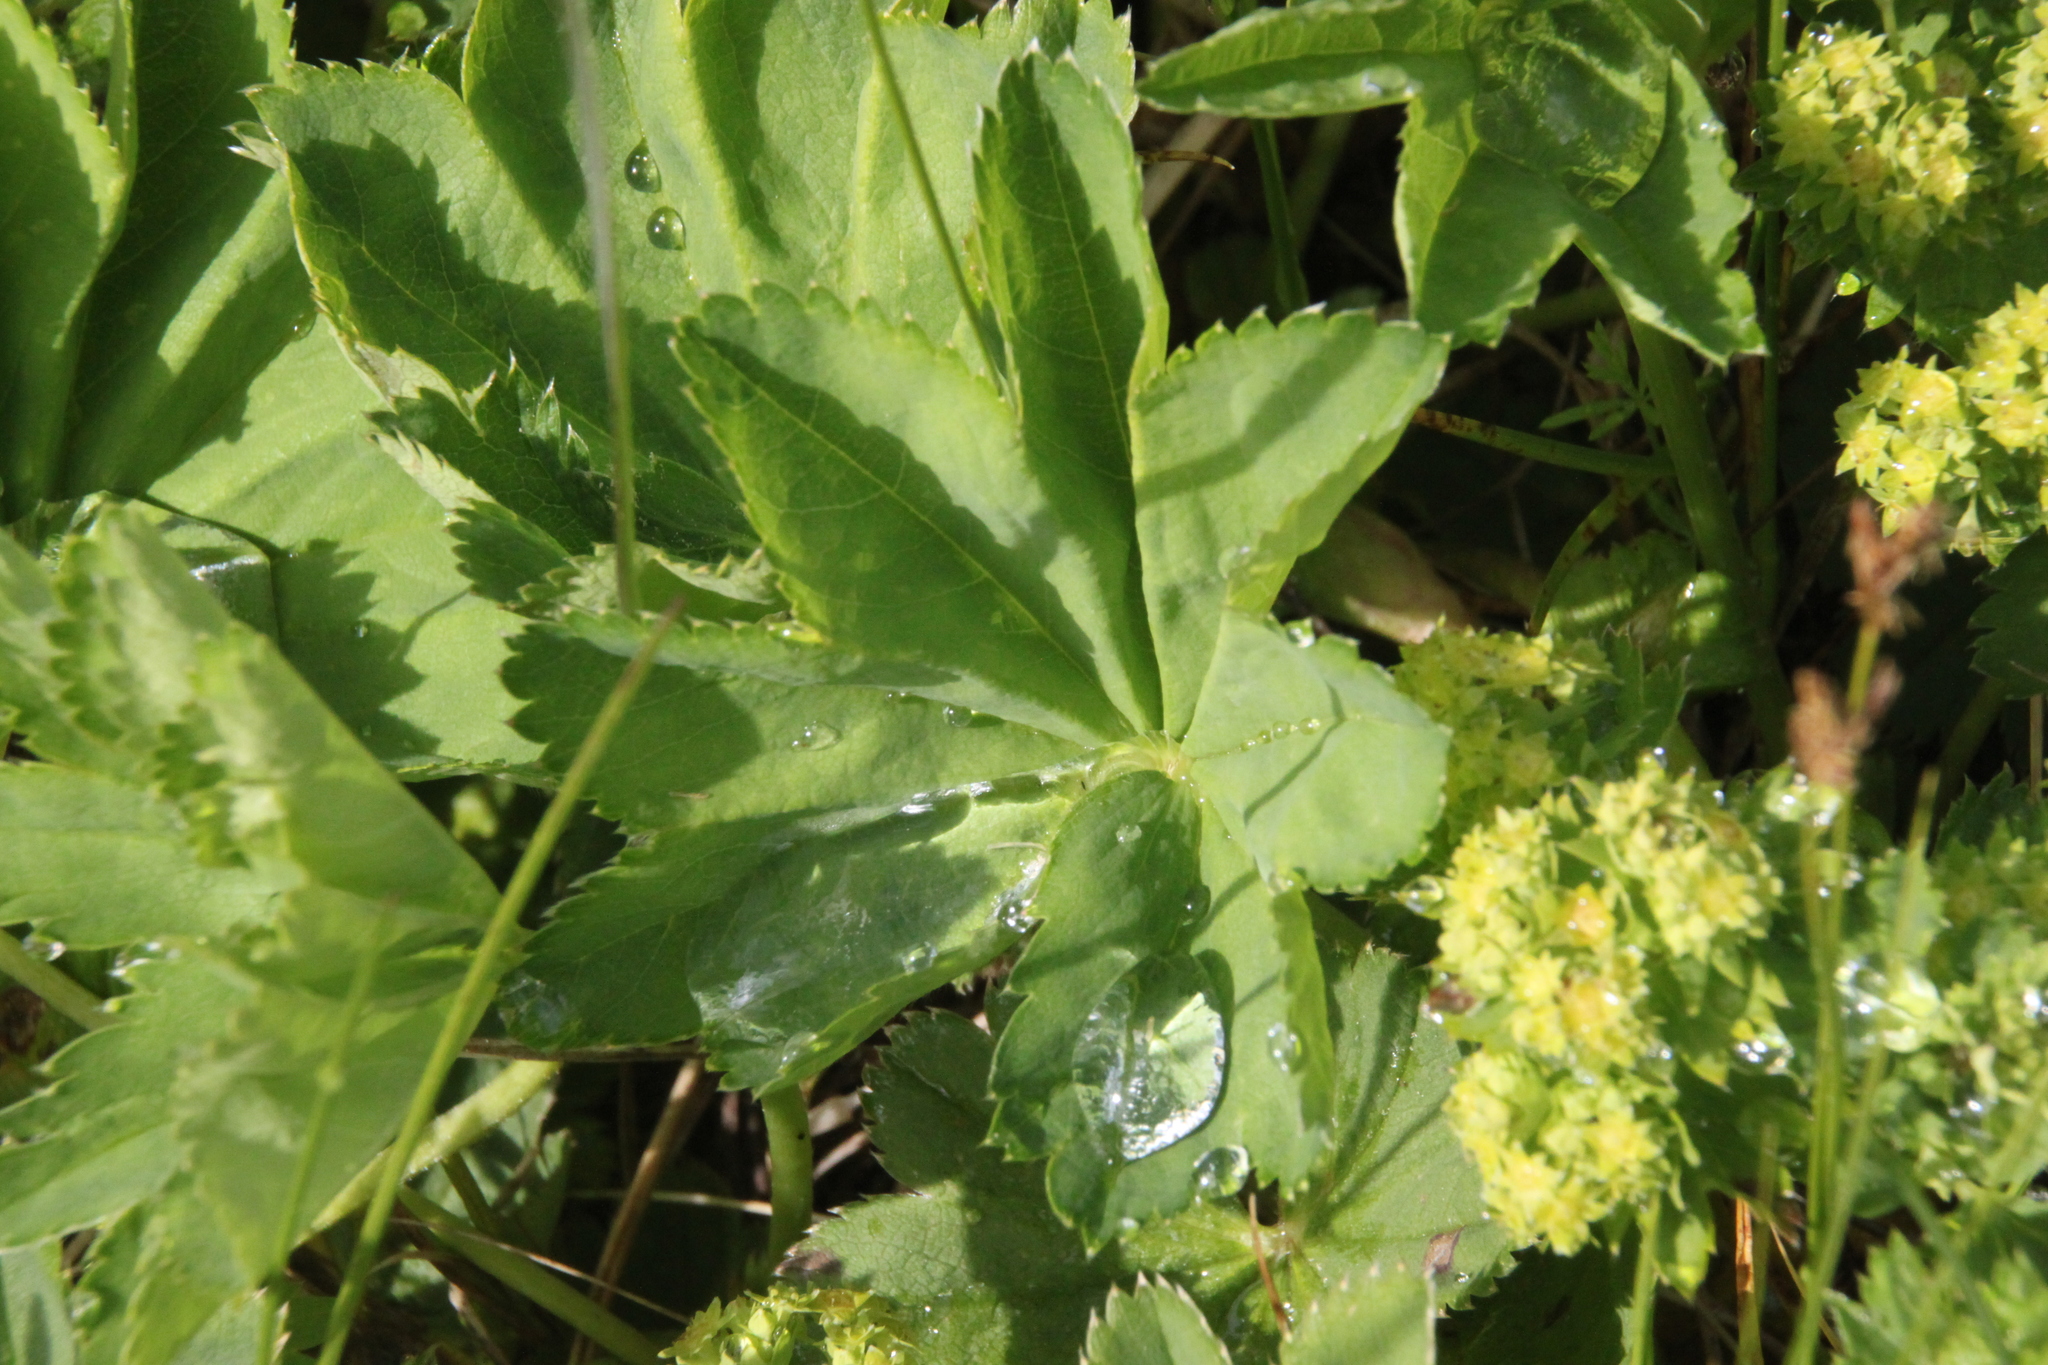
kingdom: Plantae
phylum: Tracheophyta
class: Magnoliopsida
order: Rosales
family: Rosaceae
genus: Alchemilla
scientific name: Alchemilla
